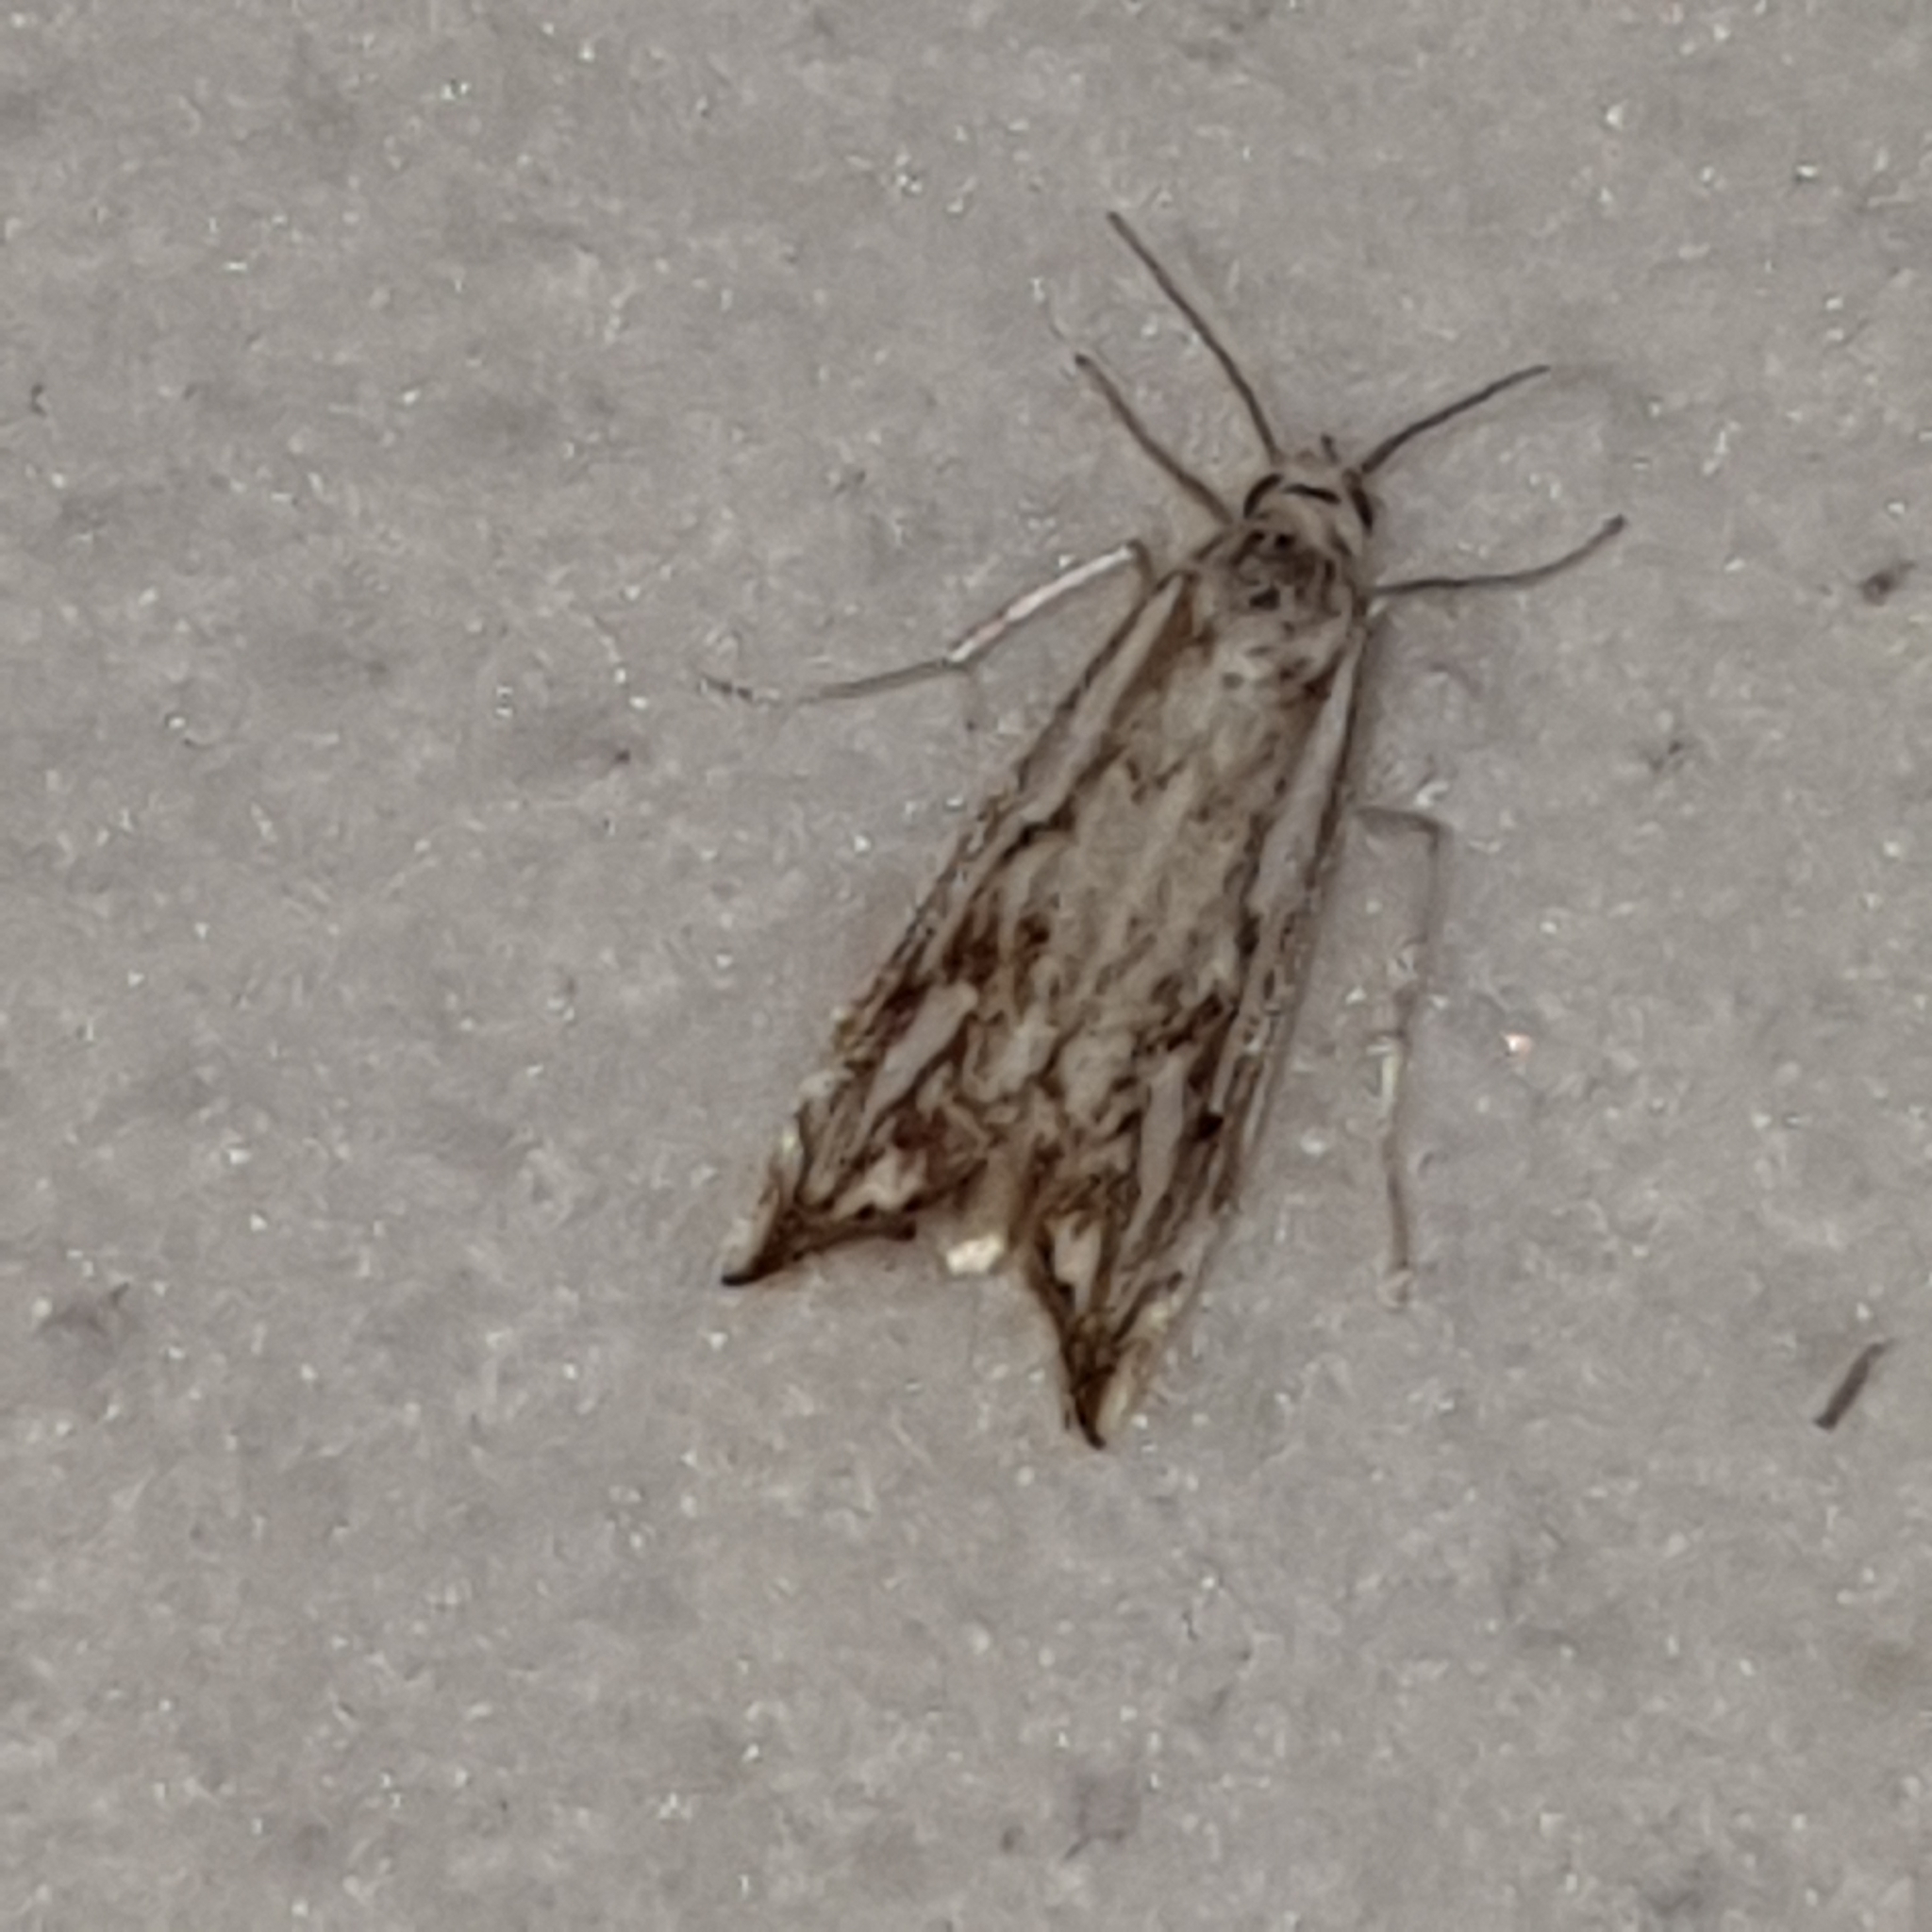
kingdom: Animalia
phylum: Arthropoda
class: Insecta
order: Lepidoptera
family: Crambidae
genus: Catoptria
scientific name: Catoptria falsella
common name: Chequered grass-veneer
